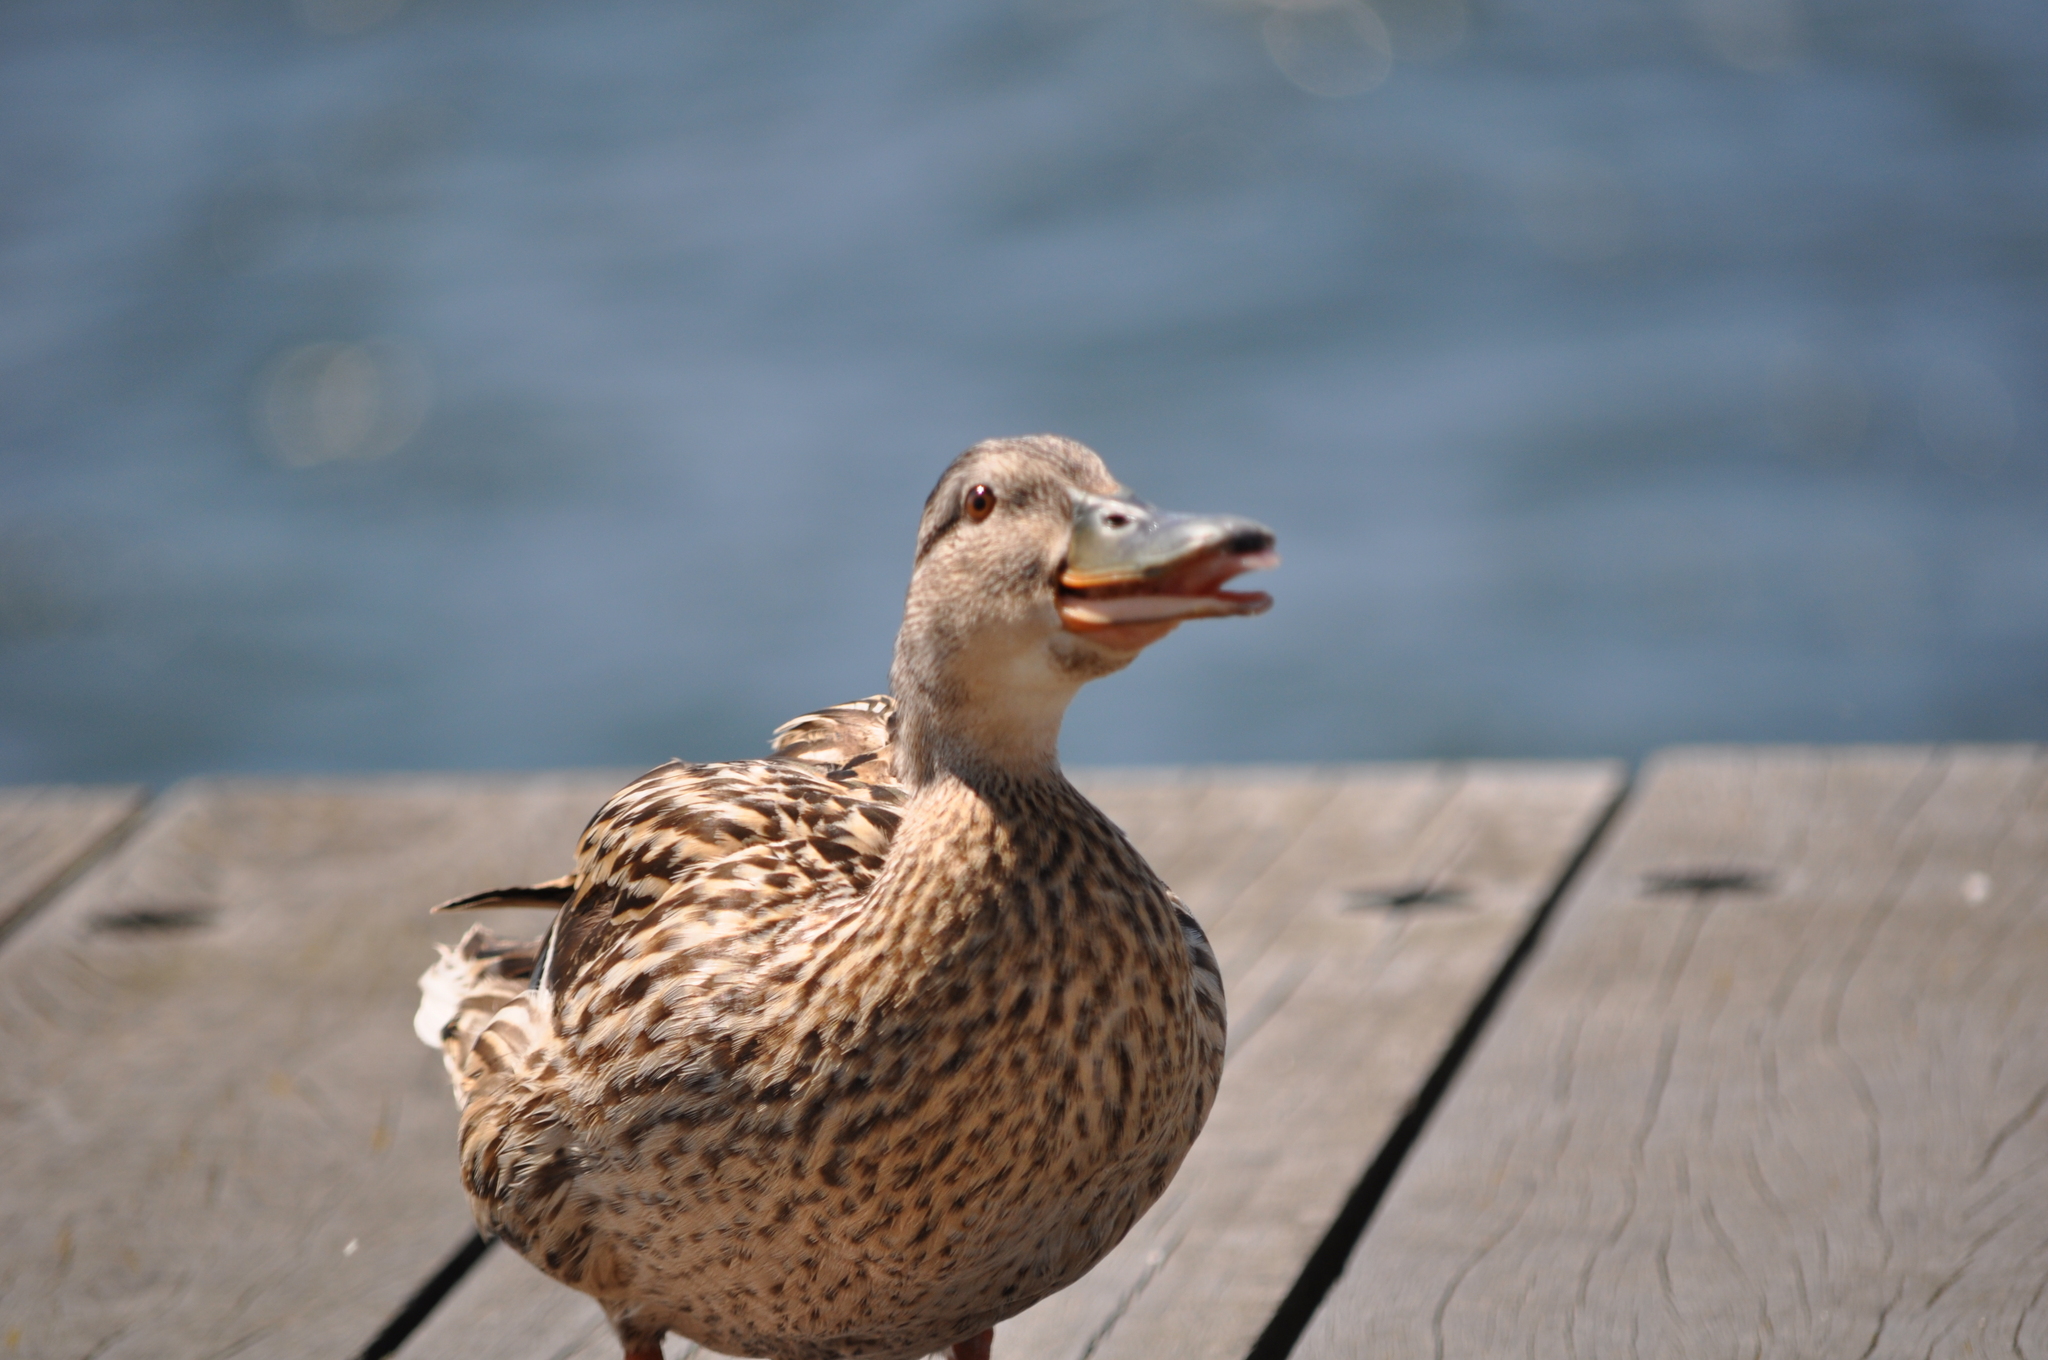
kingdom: Animalia
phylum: Chordata
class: Aves
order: Anseriformes
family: Anatidae
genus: Anas
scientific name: Anas platyrhynchos
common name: Mallard
